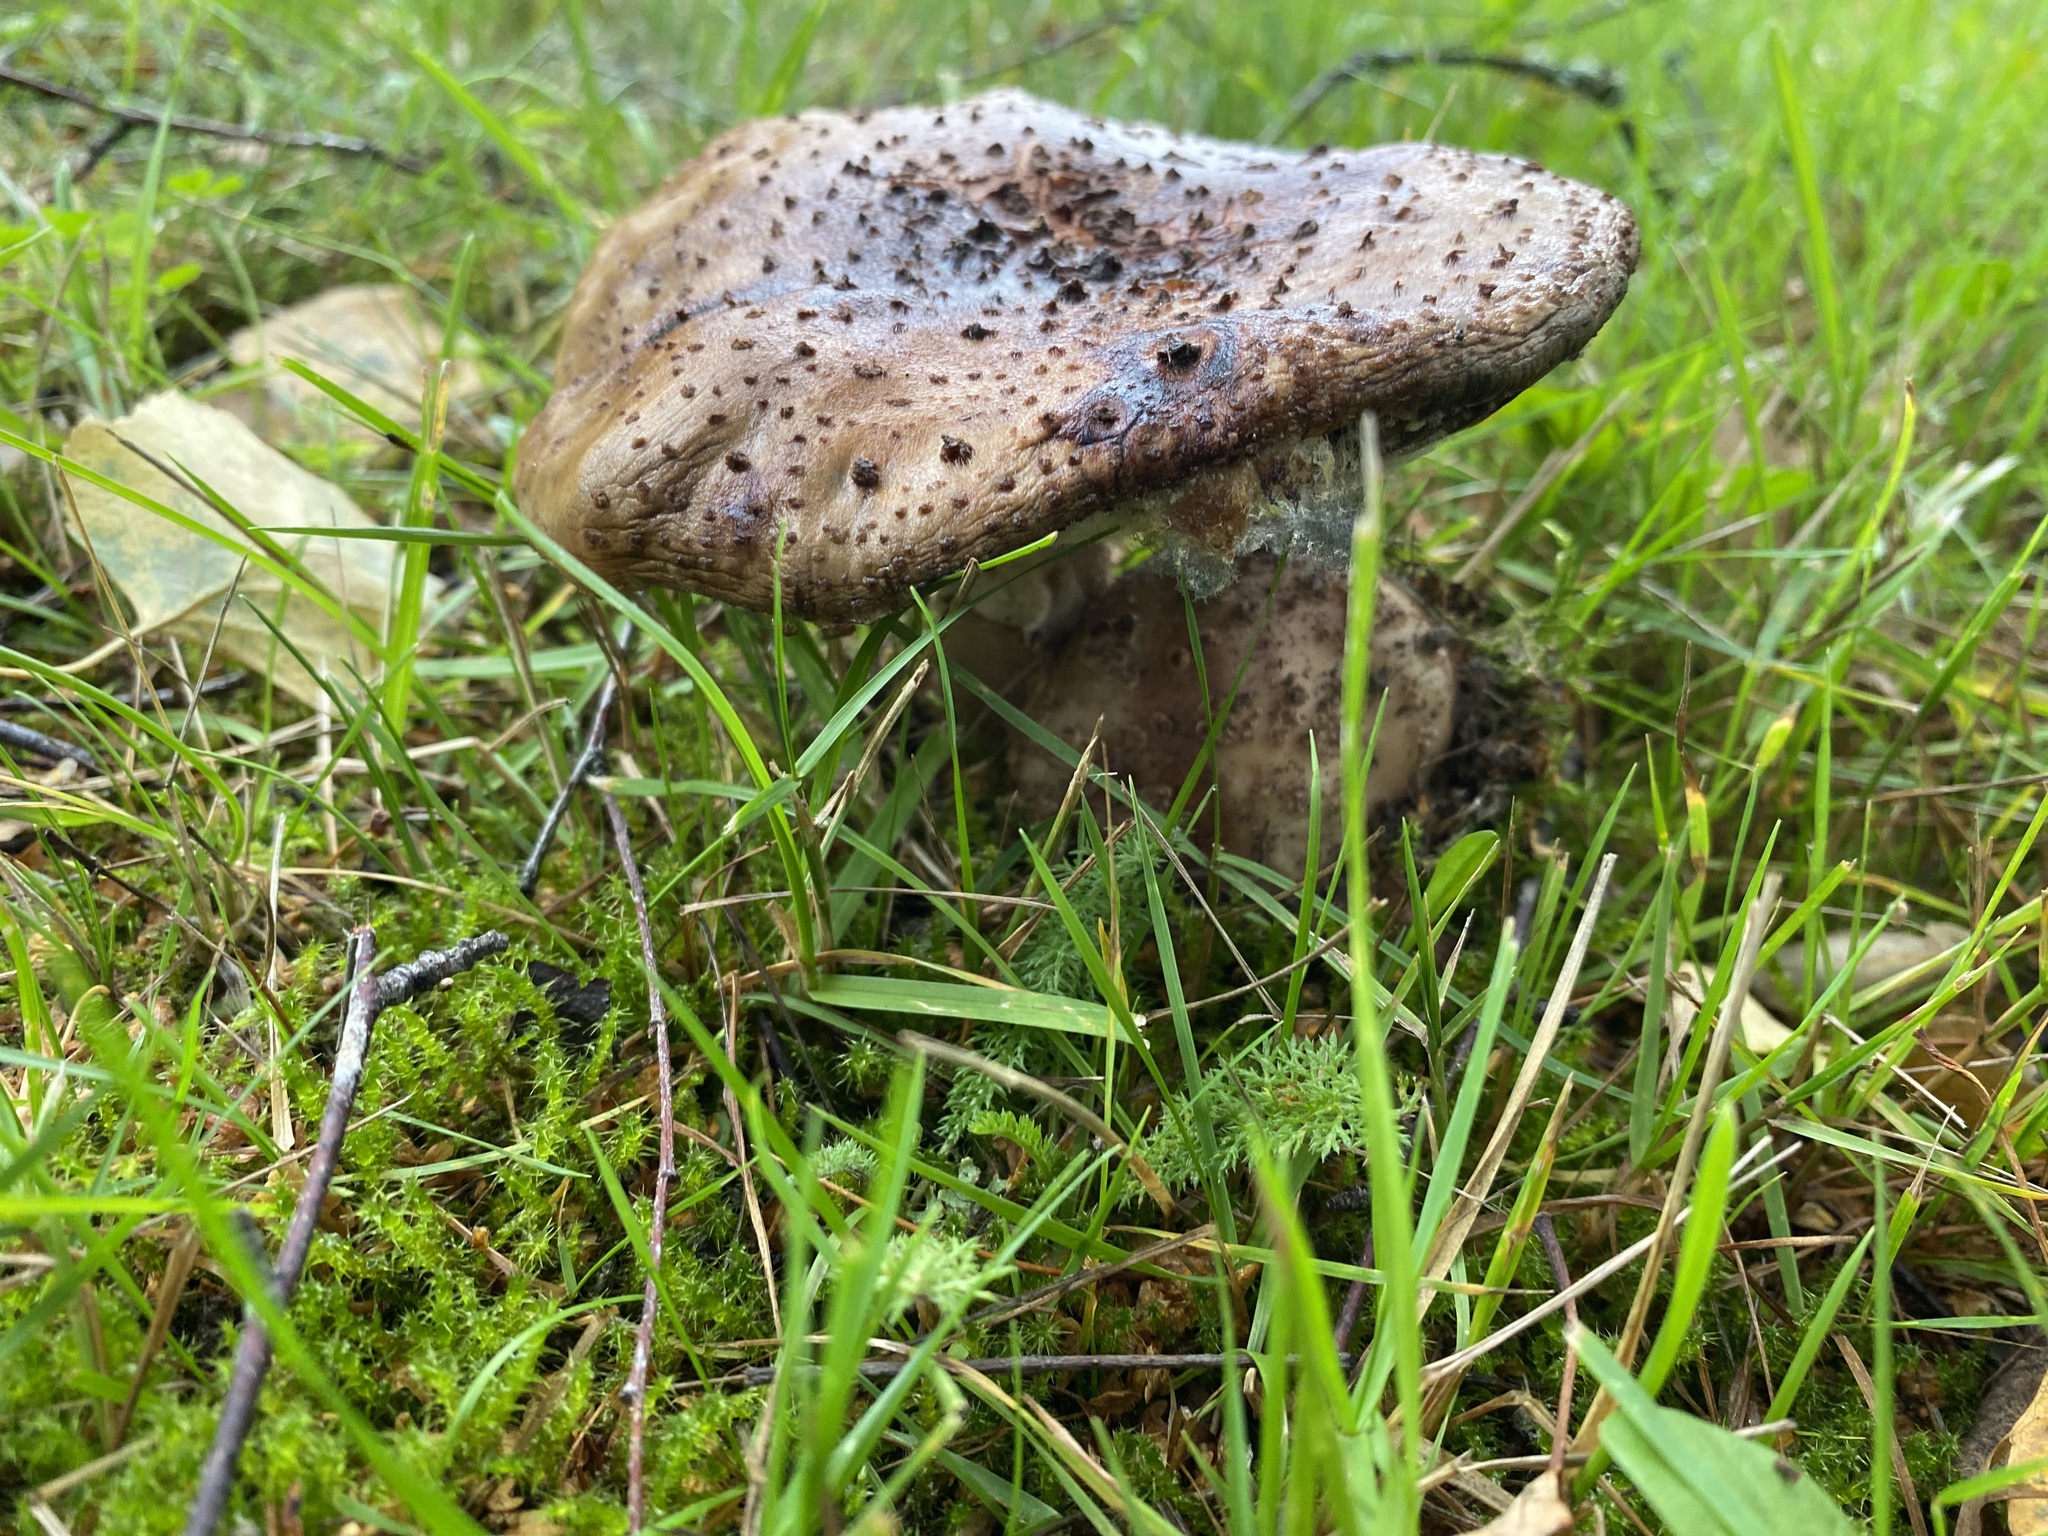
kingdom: Fungi
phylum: Basidiomycota
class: Agaricomycetes
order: Agaricales
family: Amanitaceae
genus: Amanita
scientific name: Amanita rubescens
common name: Blusher
